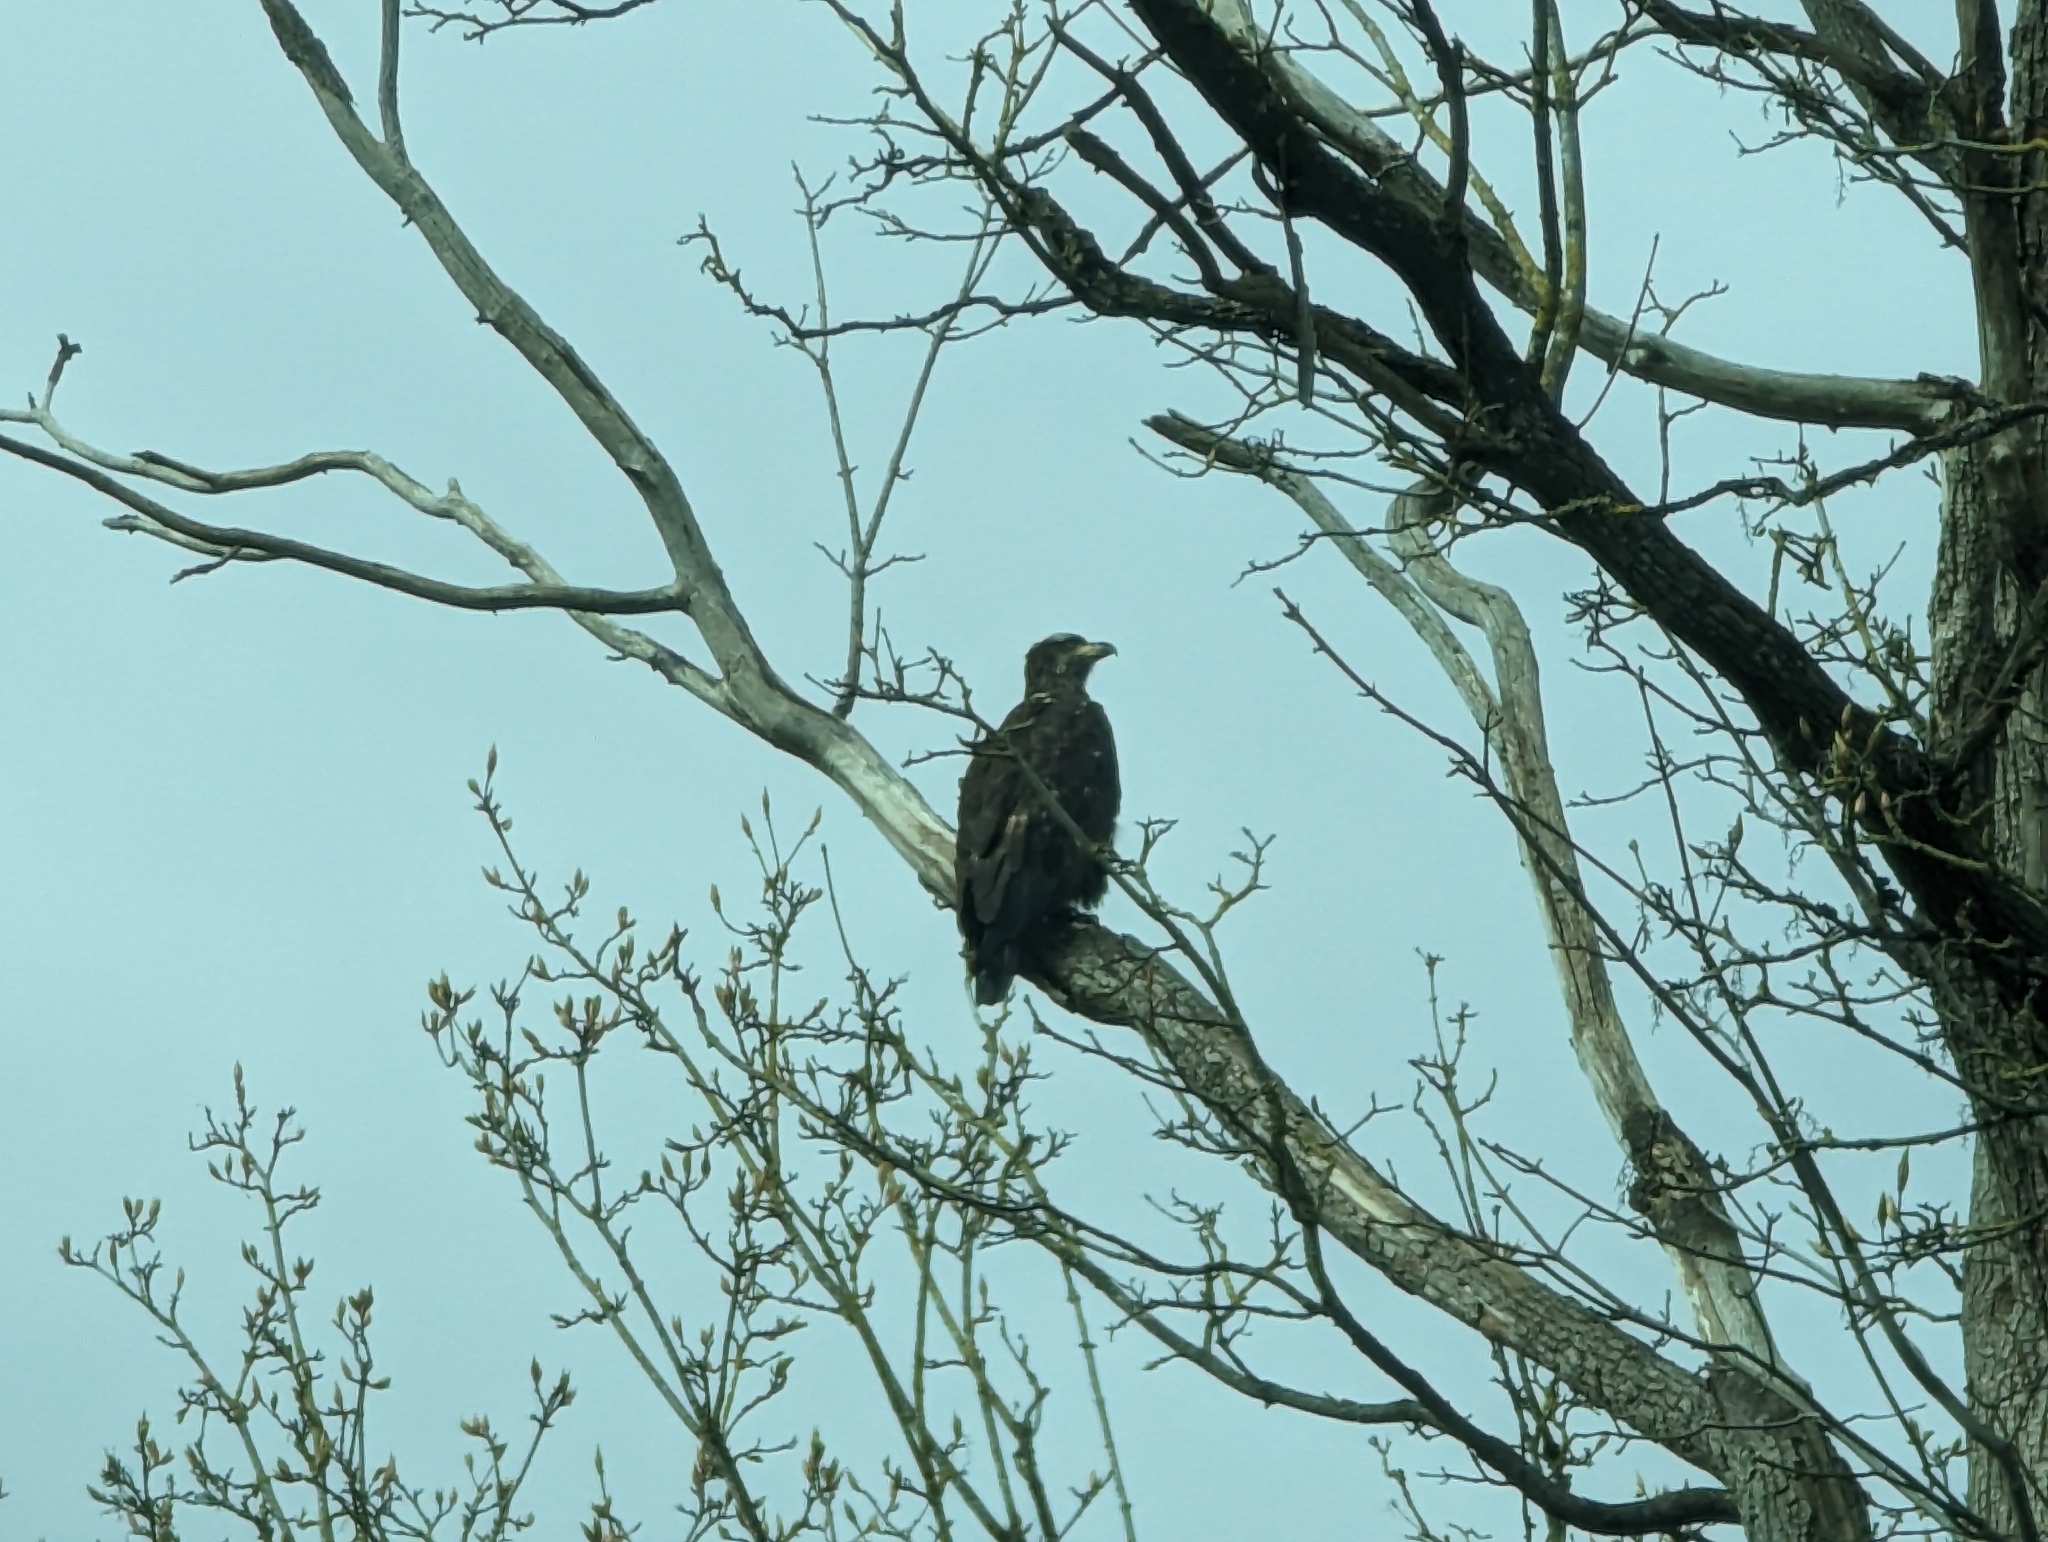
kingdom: Animalia
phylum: Chordata
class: Aves
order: Accipitriformes
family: Accipitridae
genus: Haliaeetus
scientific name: Haliaeetus leucocephalus
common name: Bald eagle
